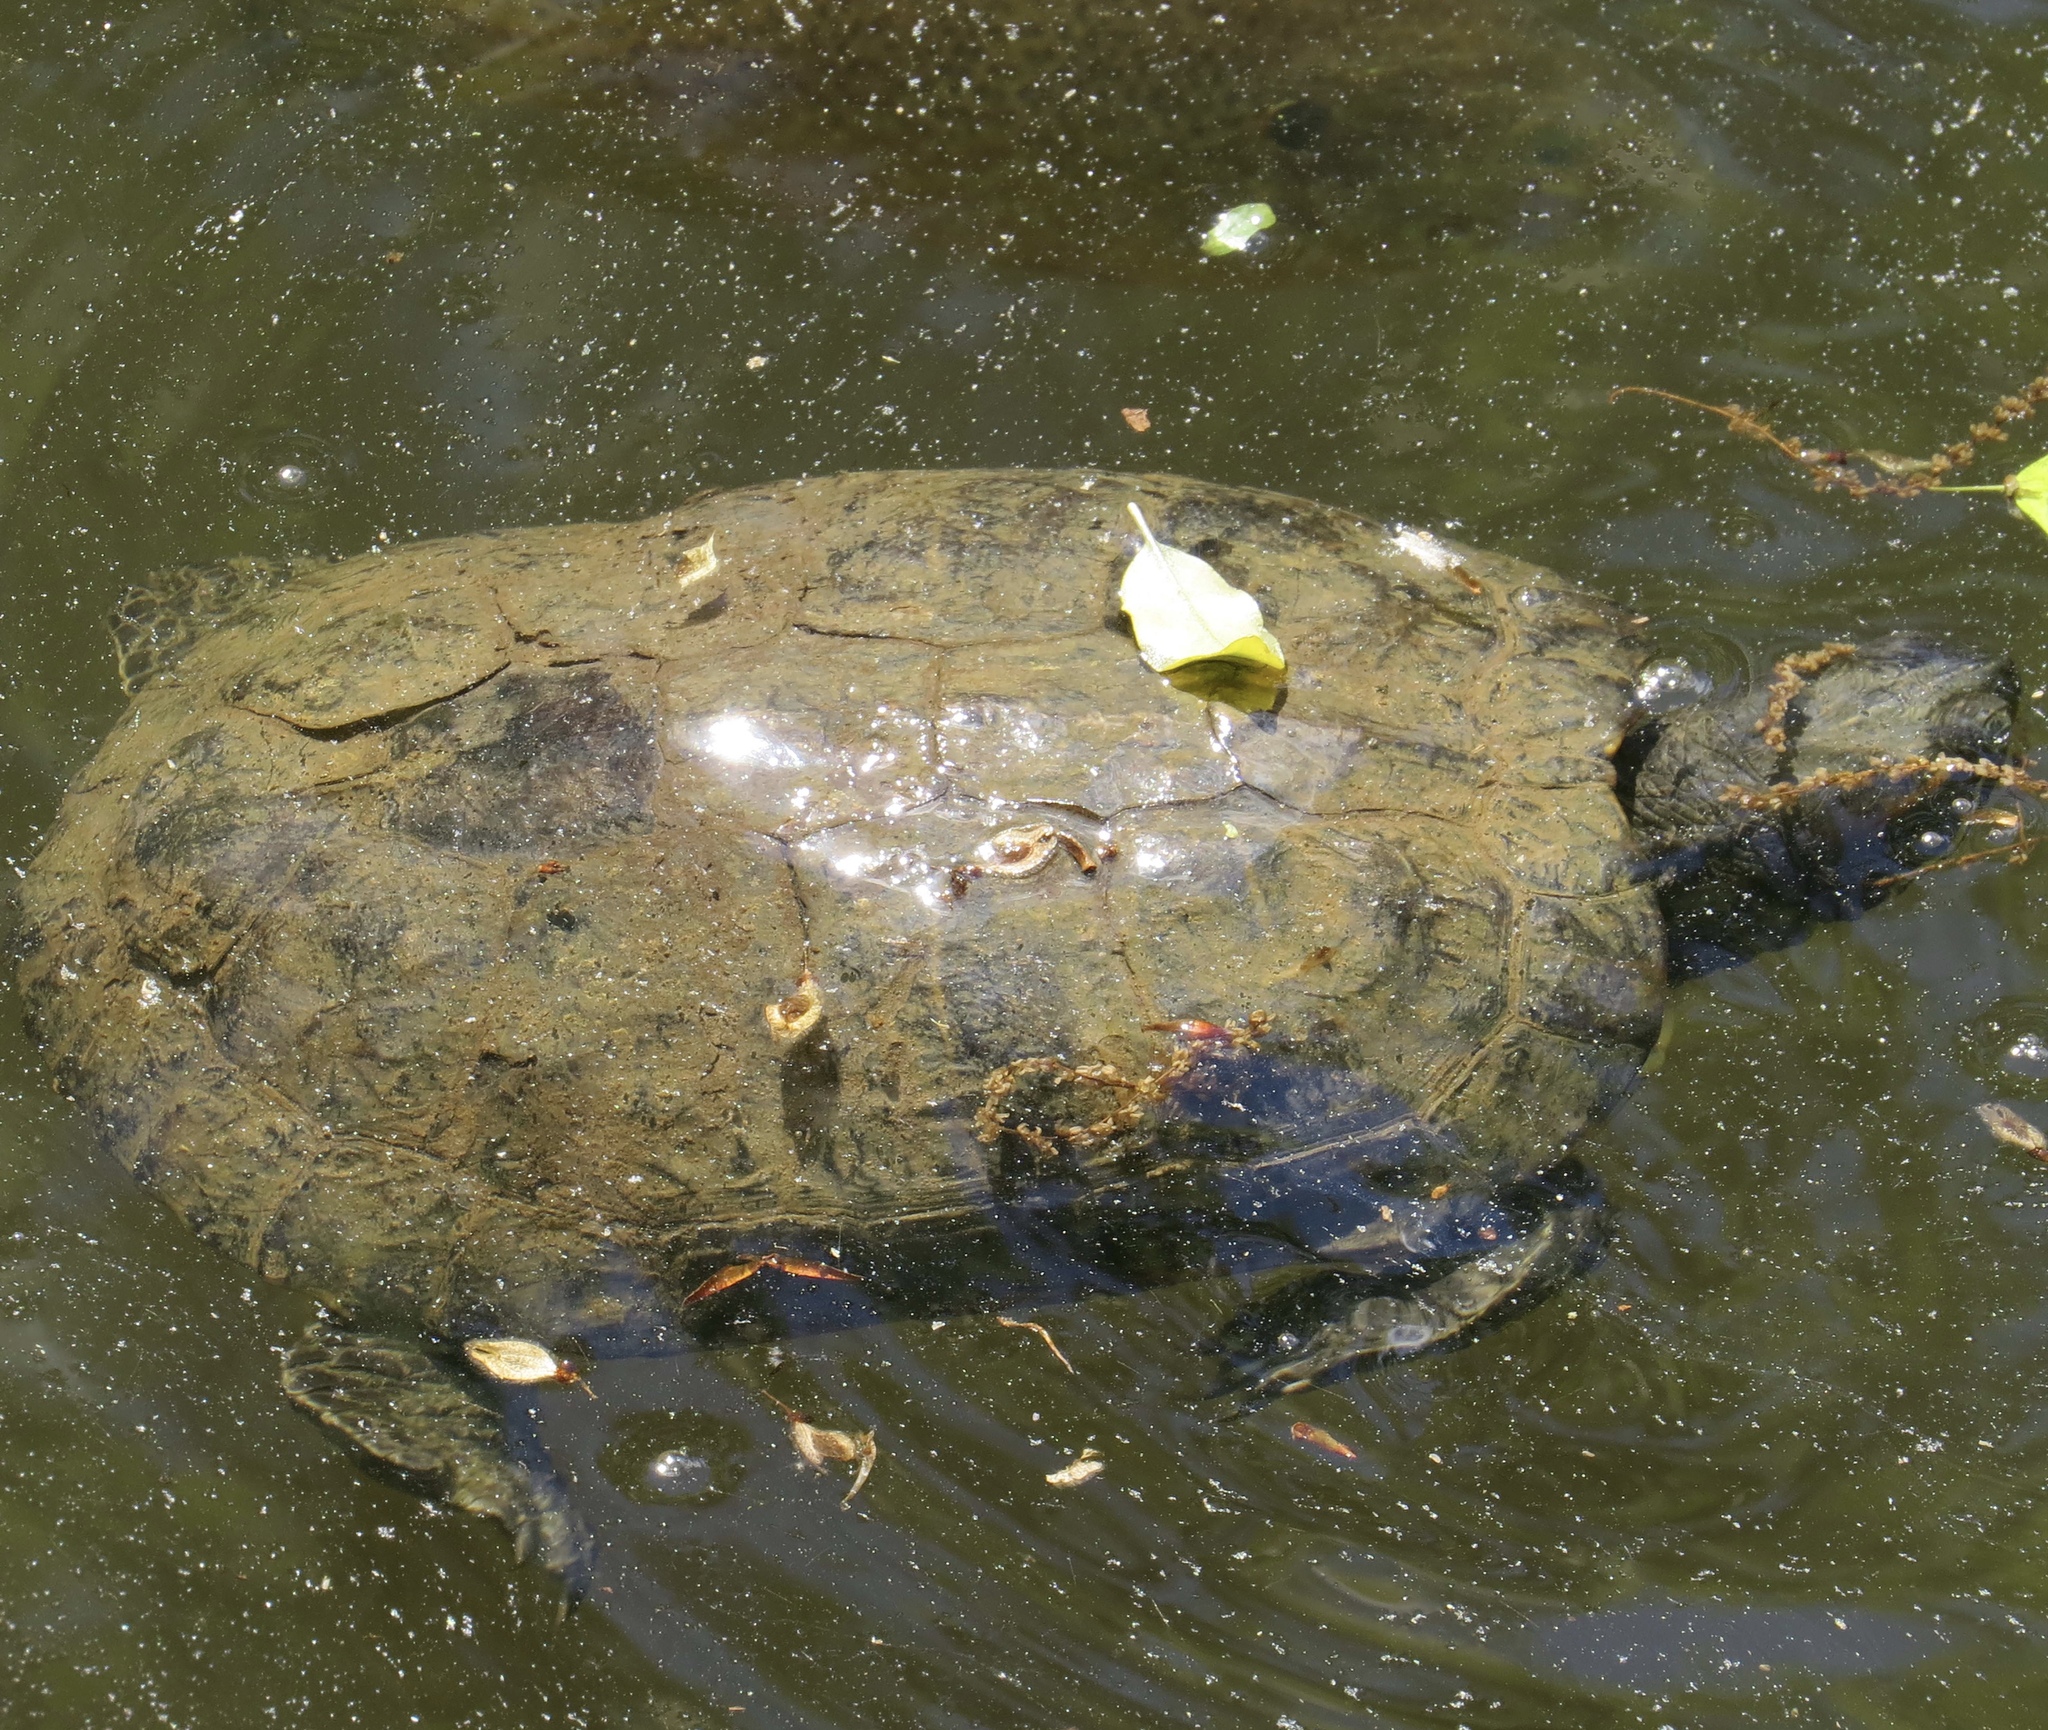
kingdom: Animalia
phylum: Chordata
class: Testudines
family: Emydidae
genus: Trachemys
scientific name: Trachemys scripta
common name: Slider
